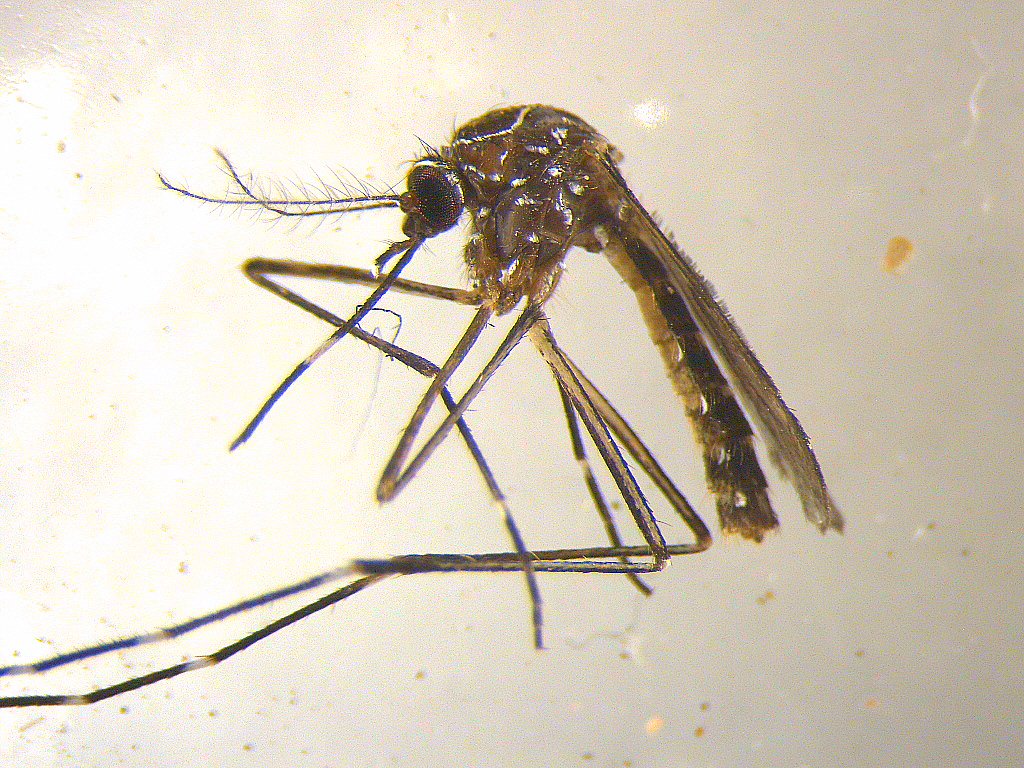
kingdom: Animalia
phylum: Arthropoda
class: Insecta
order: Diptera
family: Culicidae
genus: Aedes
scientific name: Aedes notoscriptus
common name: Australian backyard mosquito
